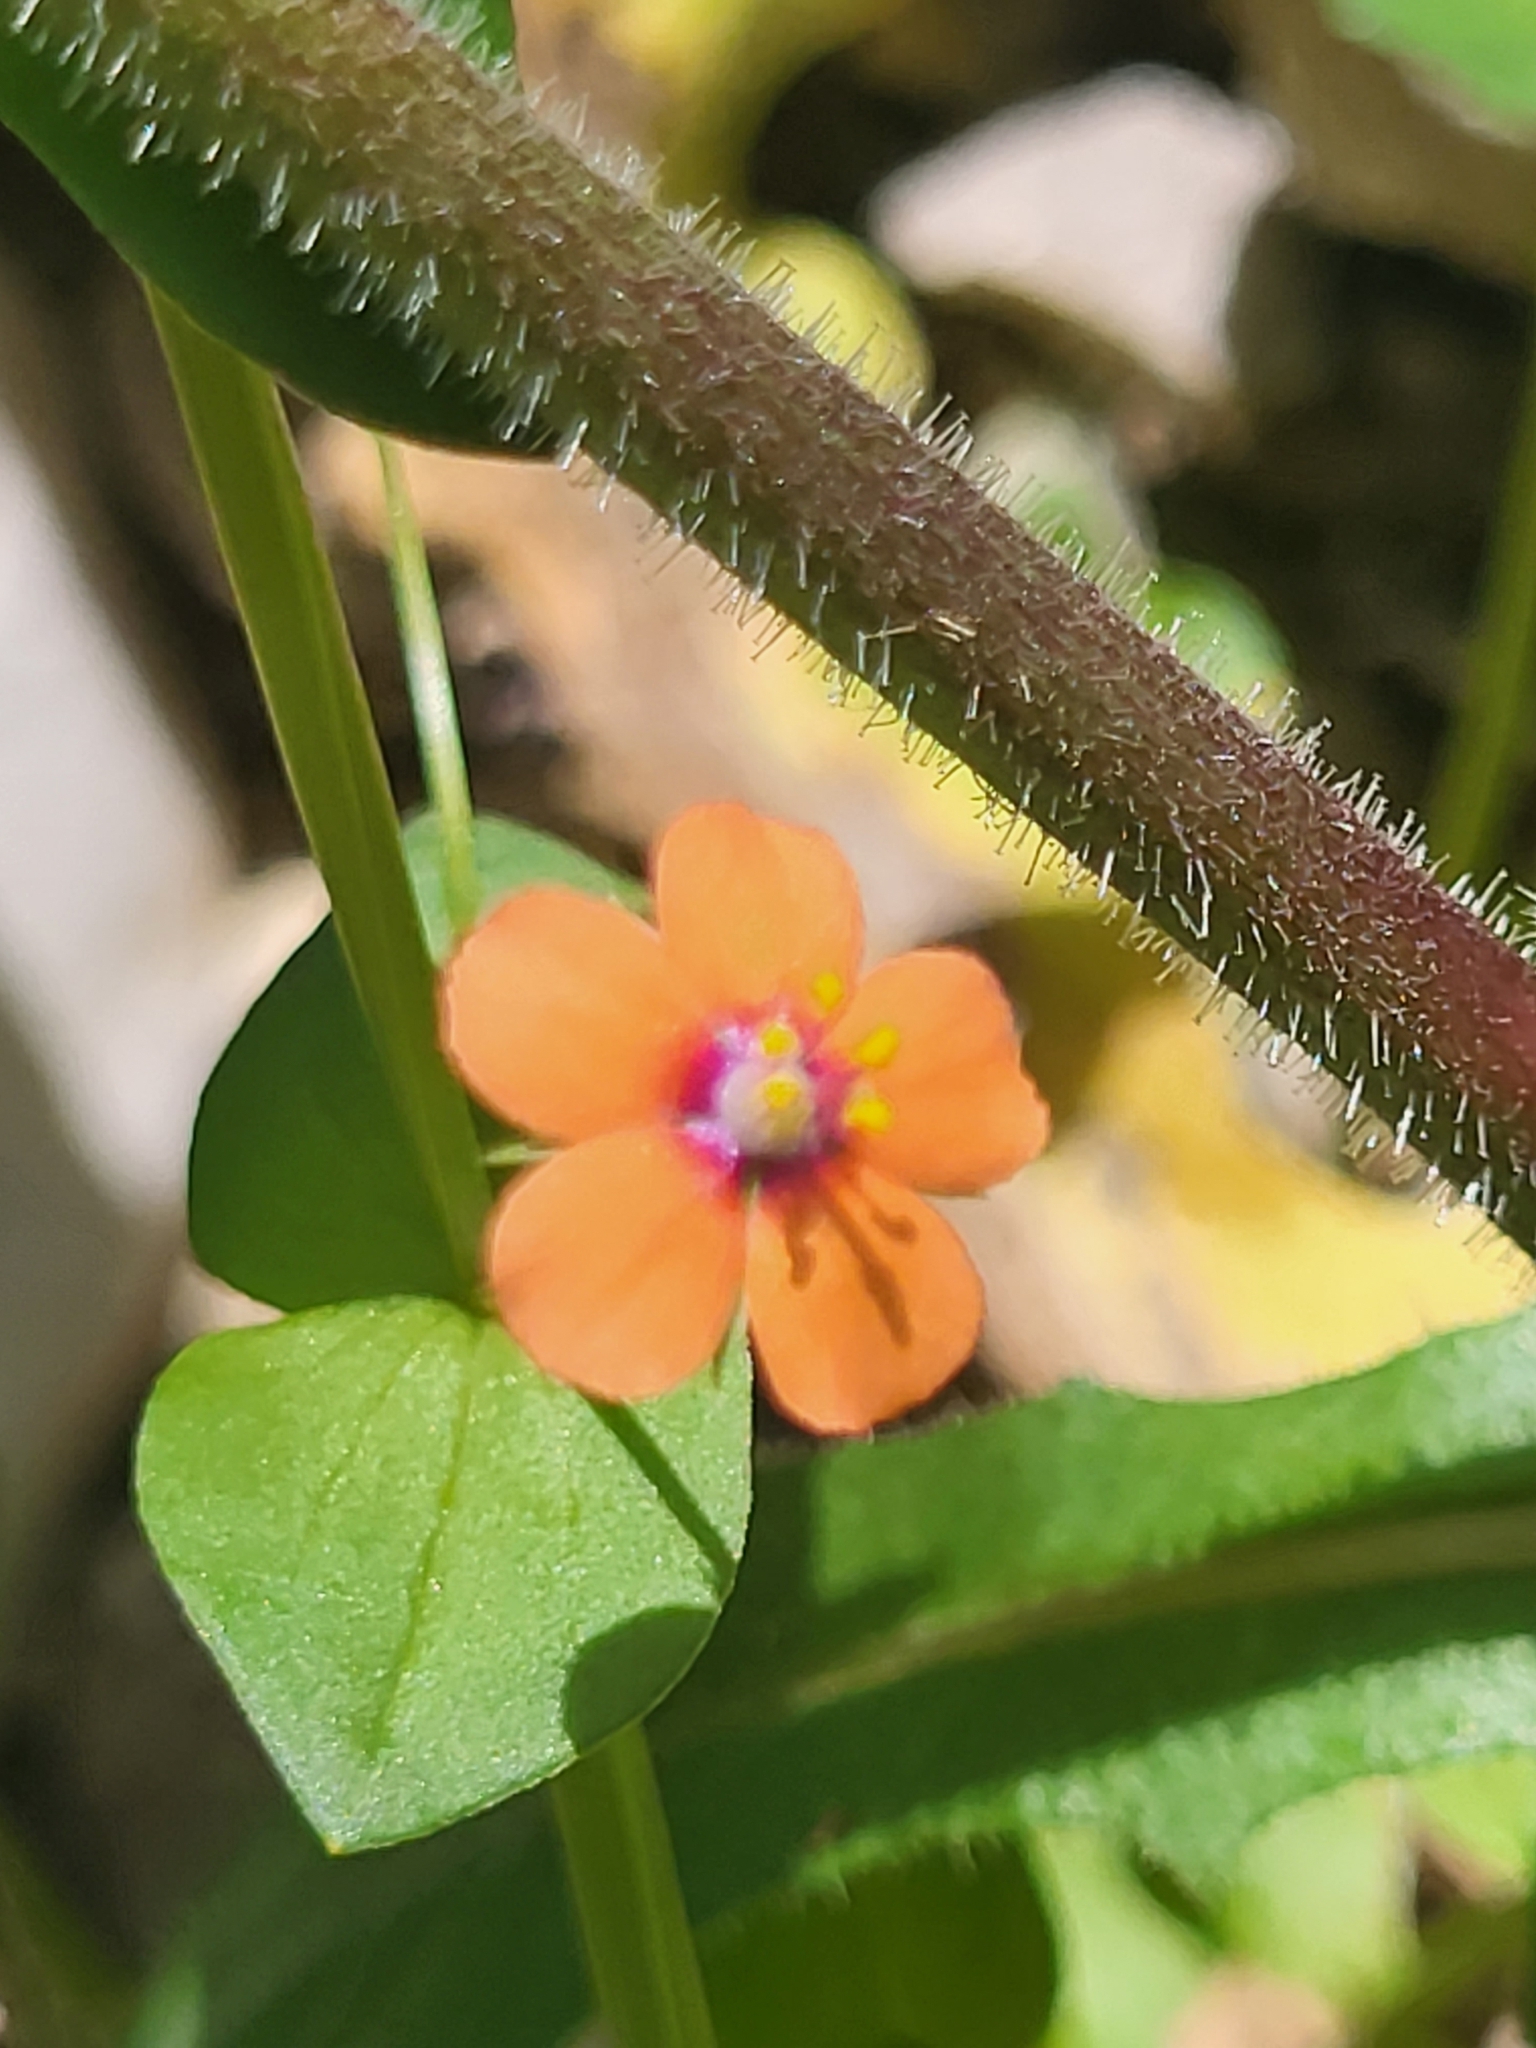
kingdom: Plantae
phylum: Tracheophyta
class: Magnoliopsida
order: Ericales
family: Primulaceae
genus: Lysimachia
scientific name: Lysimachia arvensis
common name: Scarlet pimpernel
